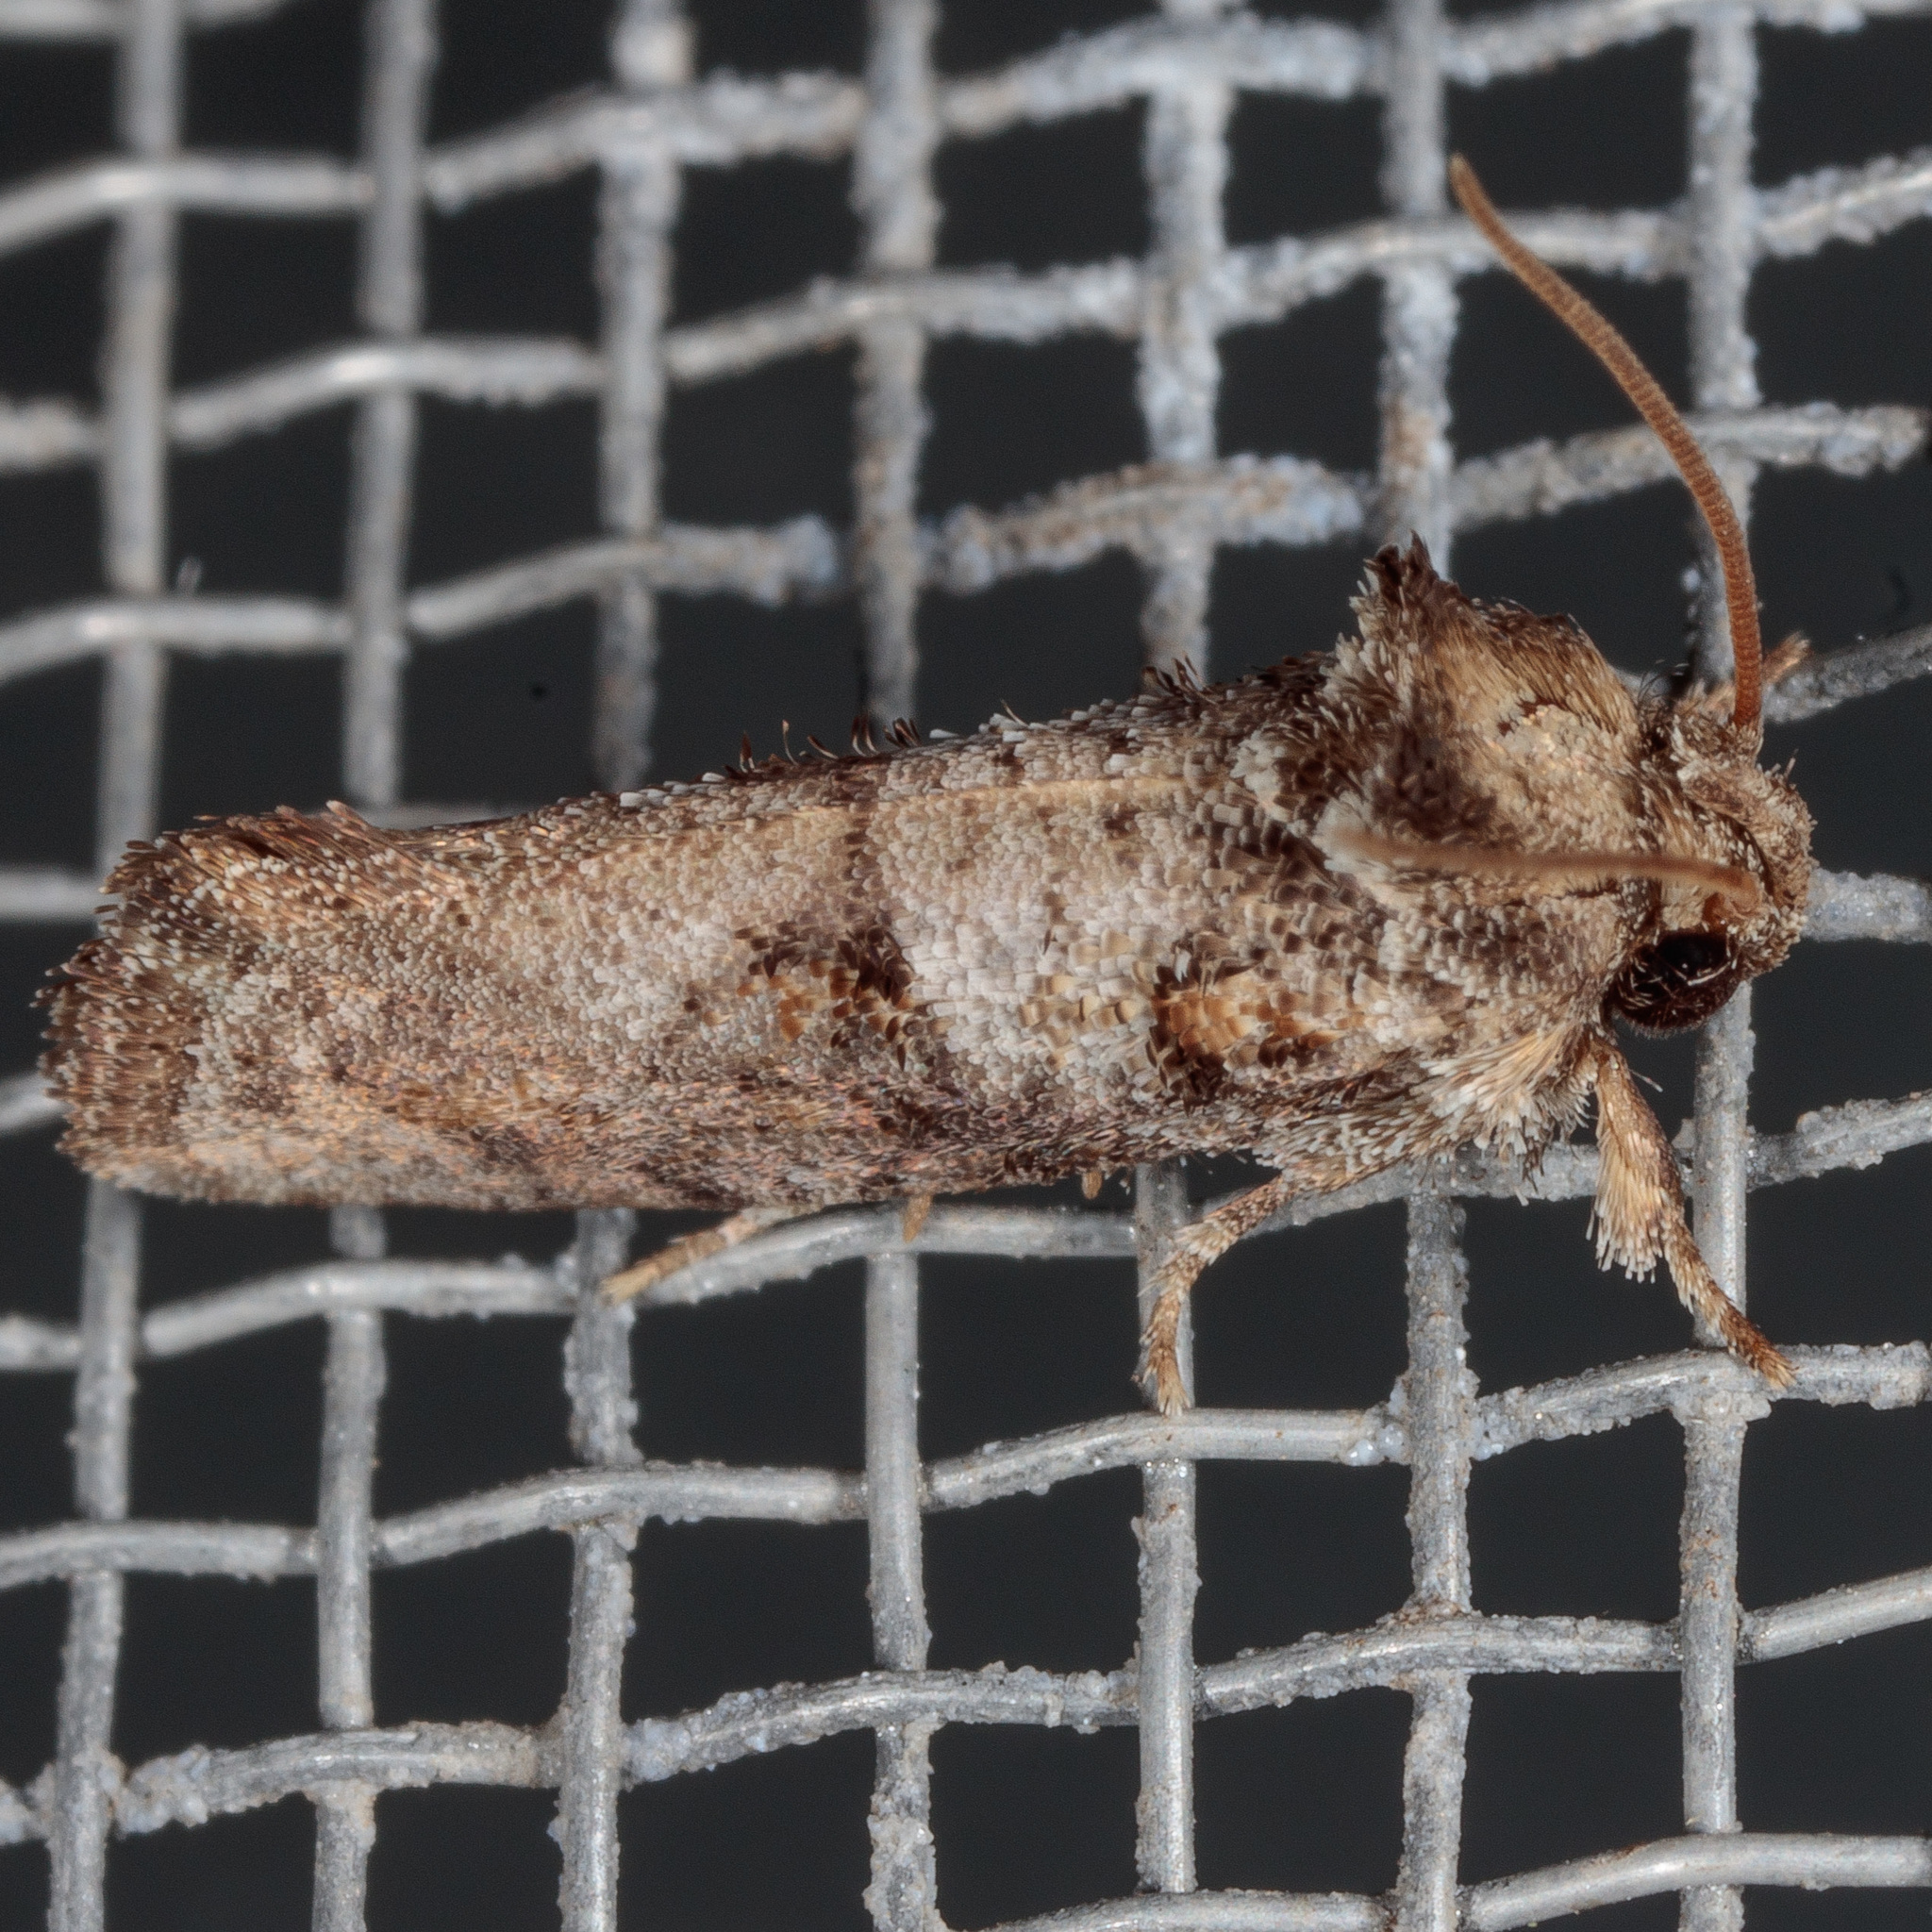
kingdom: Animalia
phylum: Arthropoda
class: Insecta
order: Lepidoptera
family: Tineidae
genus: Acrolophus
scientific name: Acrolophus piger
